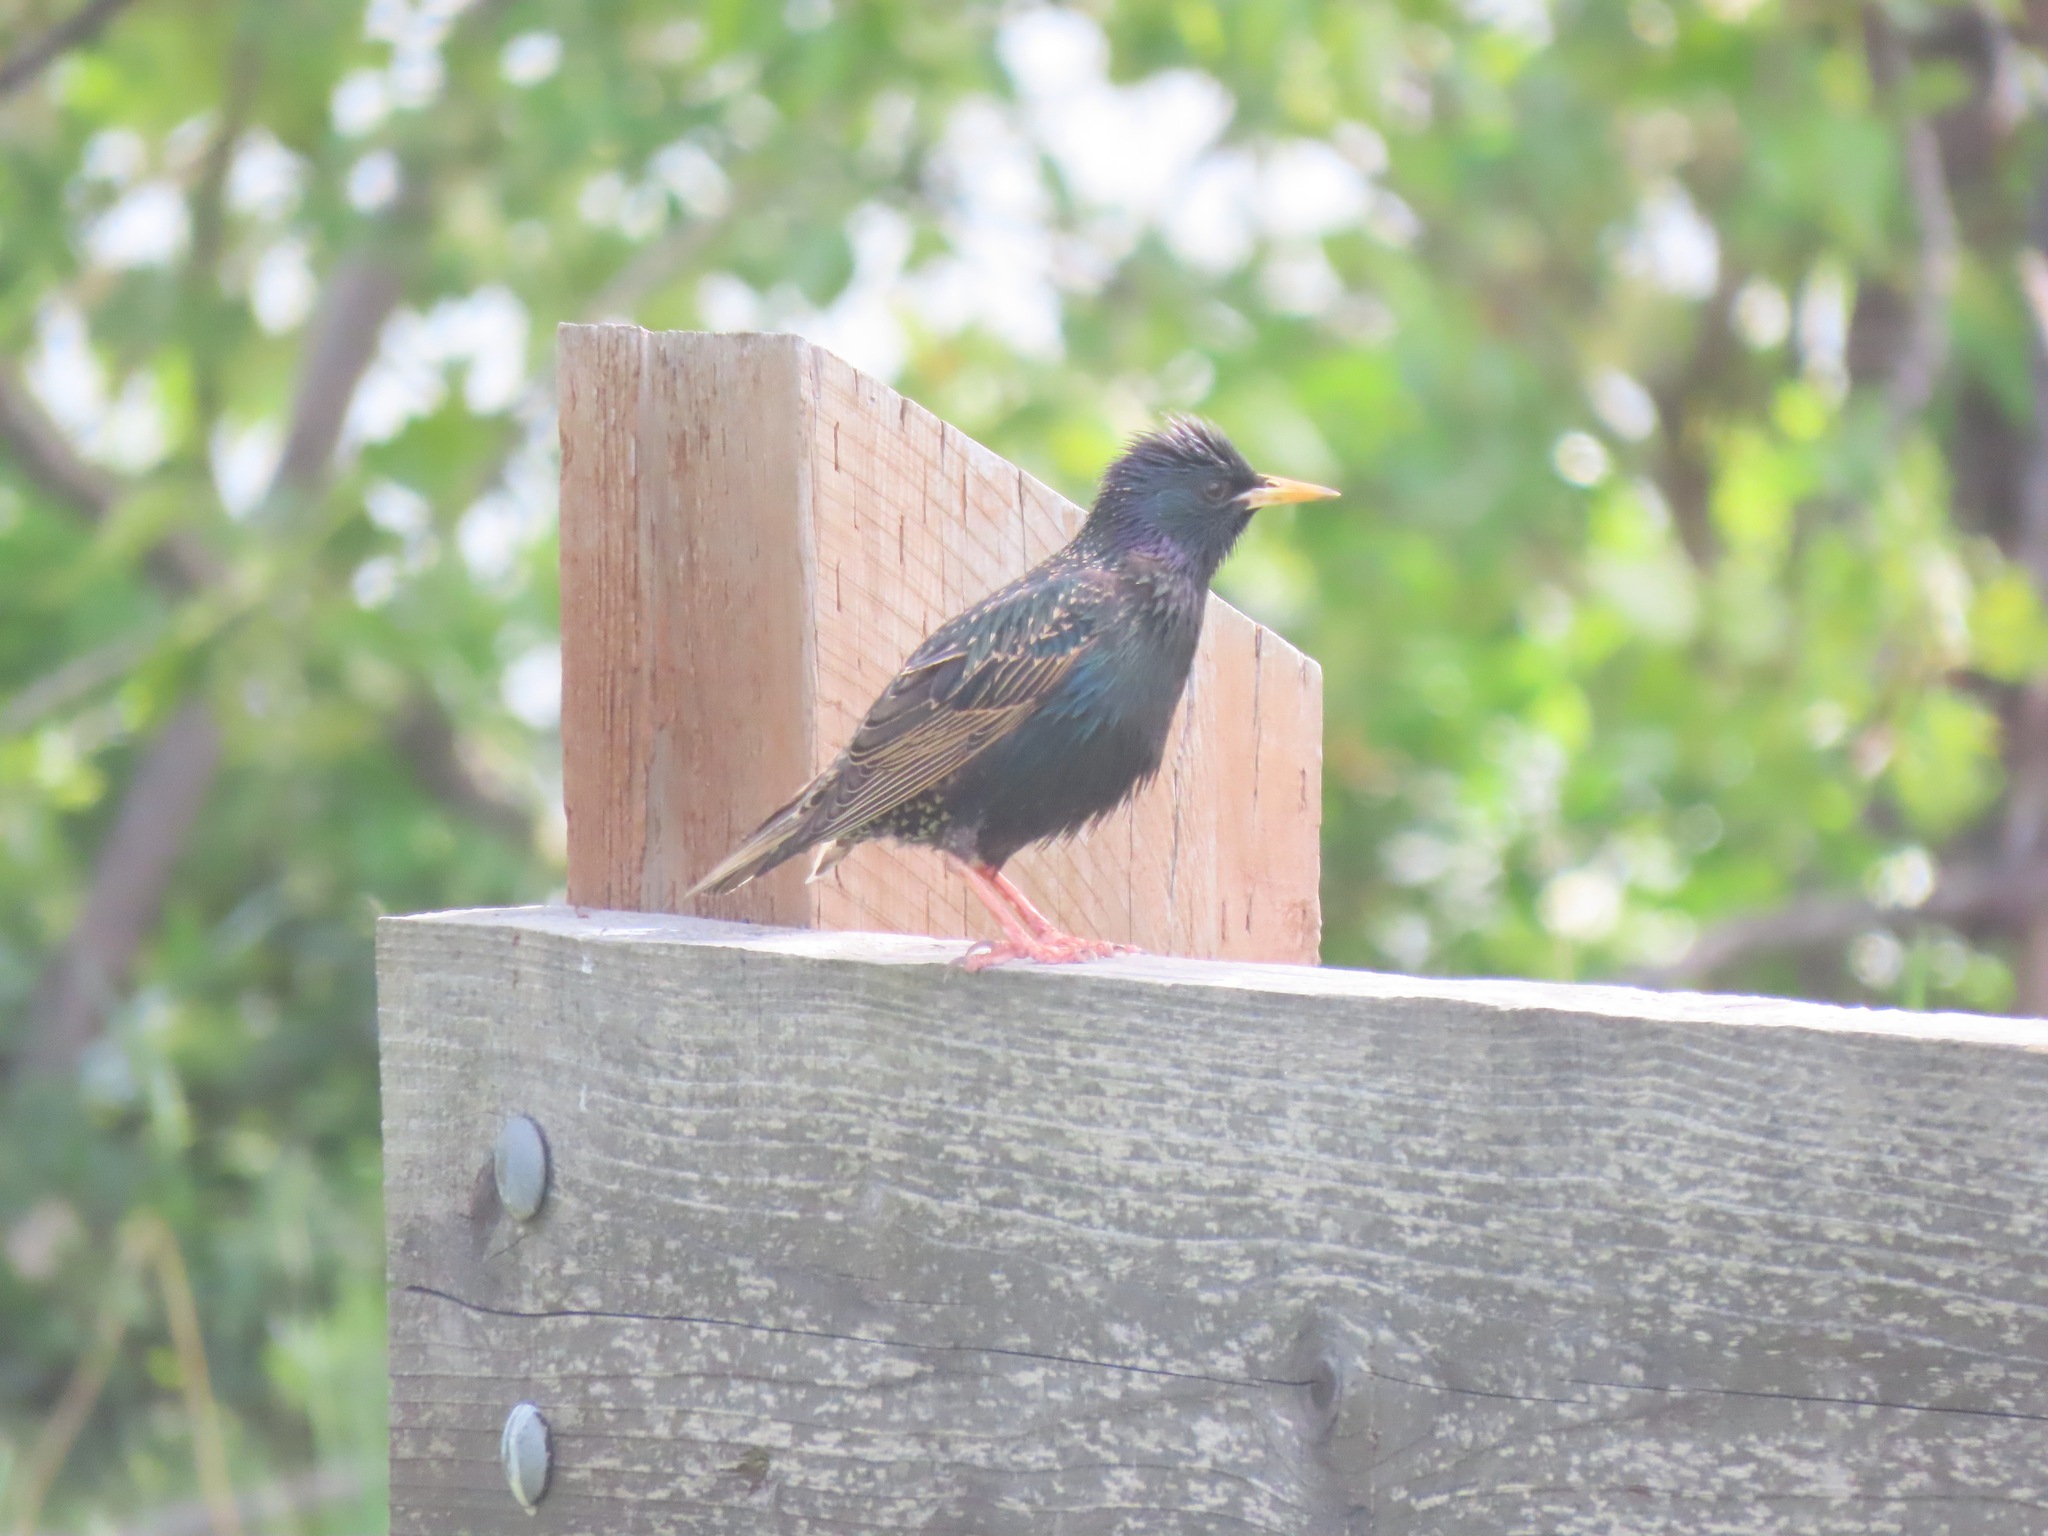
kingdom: Animalia
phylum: Chordata
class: Aves
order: Passeriformes
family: Sturnidae
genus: Sturnus
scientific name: Sturnus vulgaris
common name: Common starling
